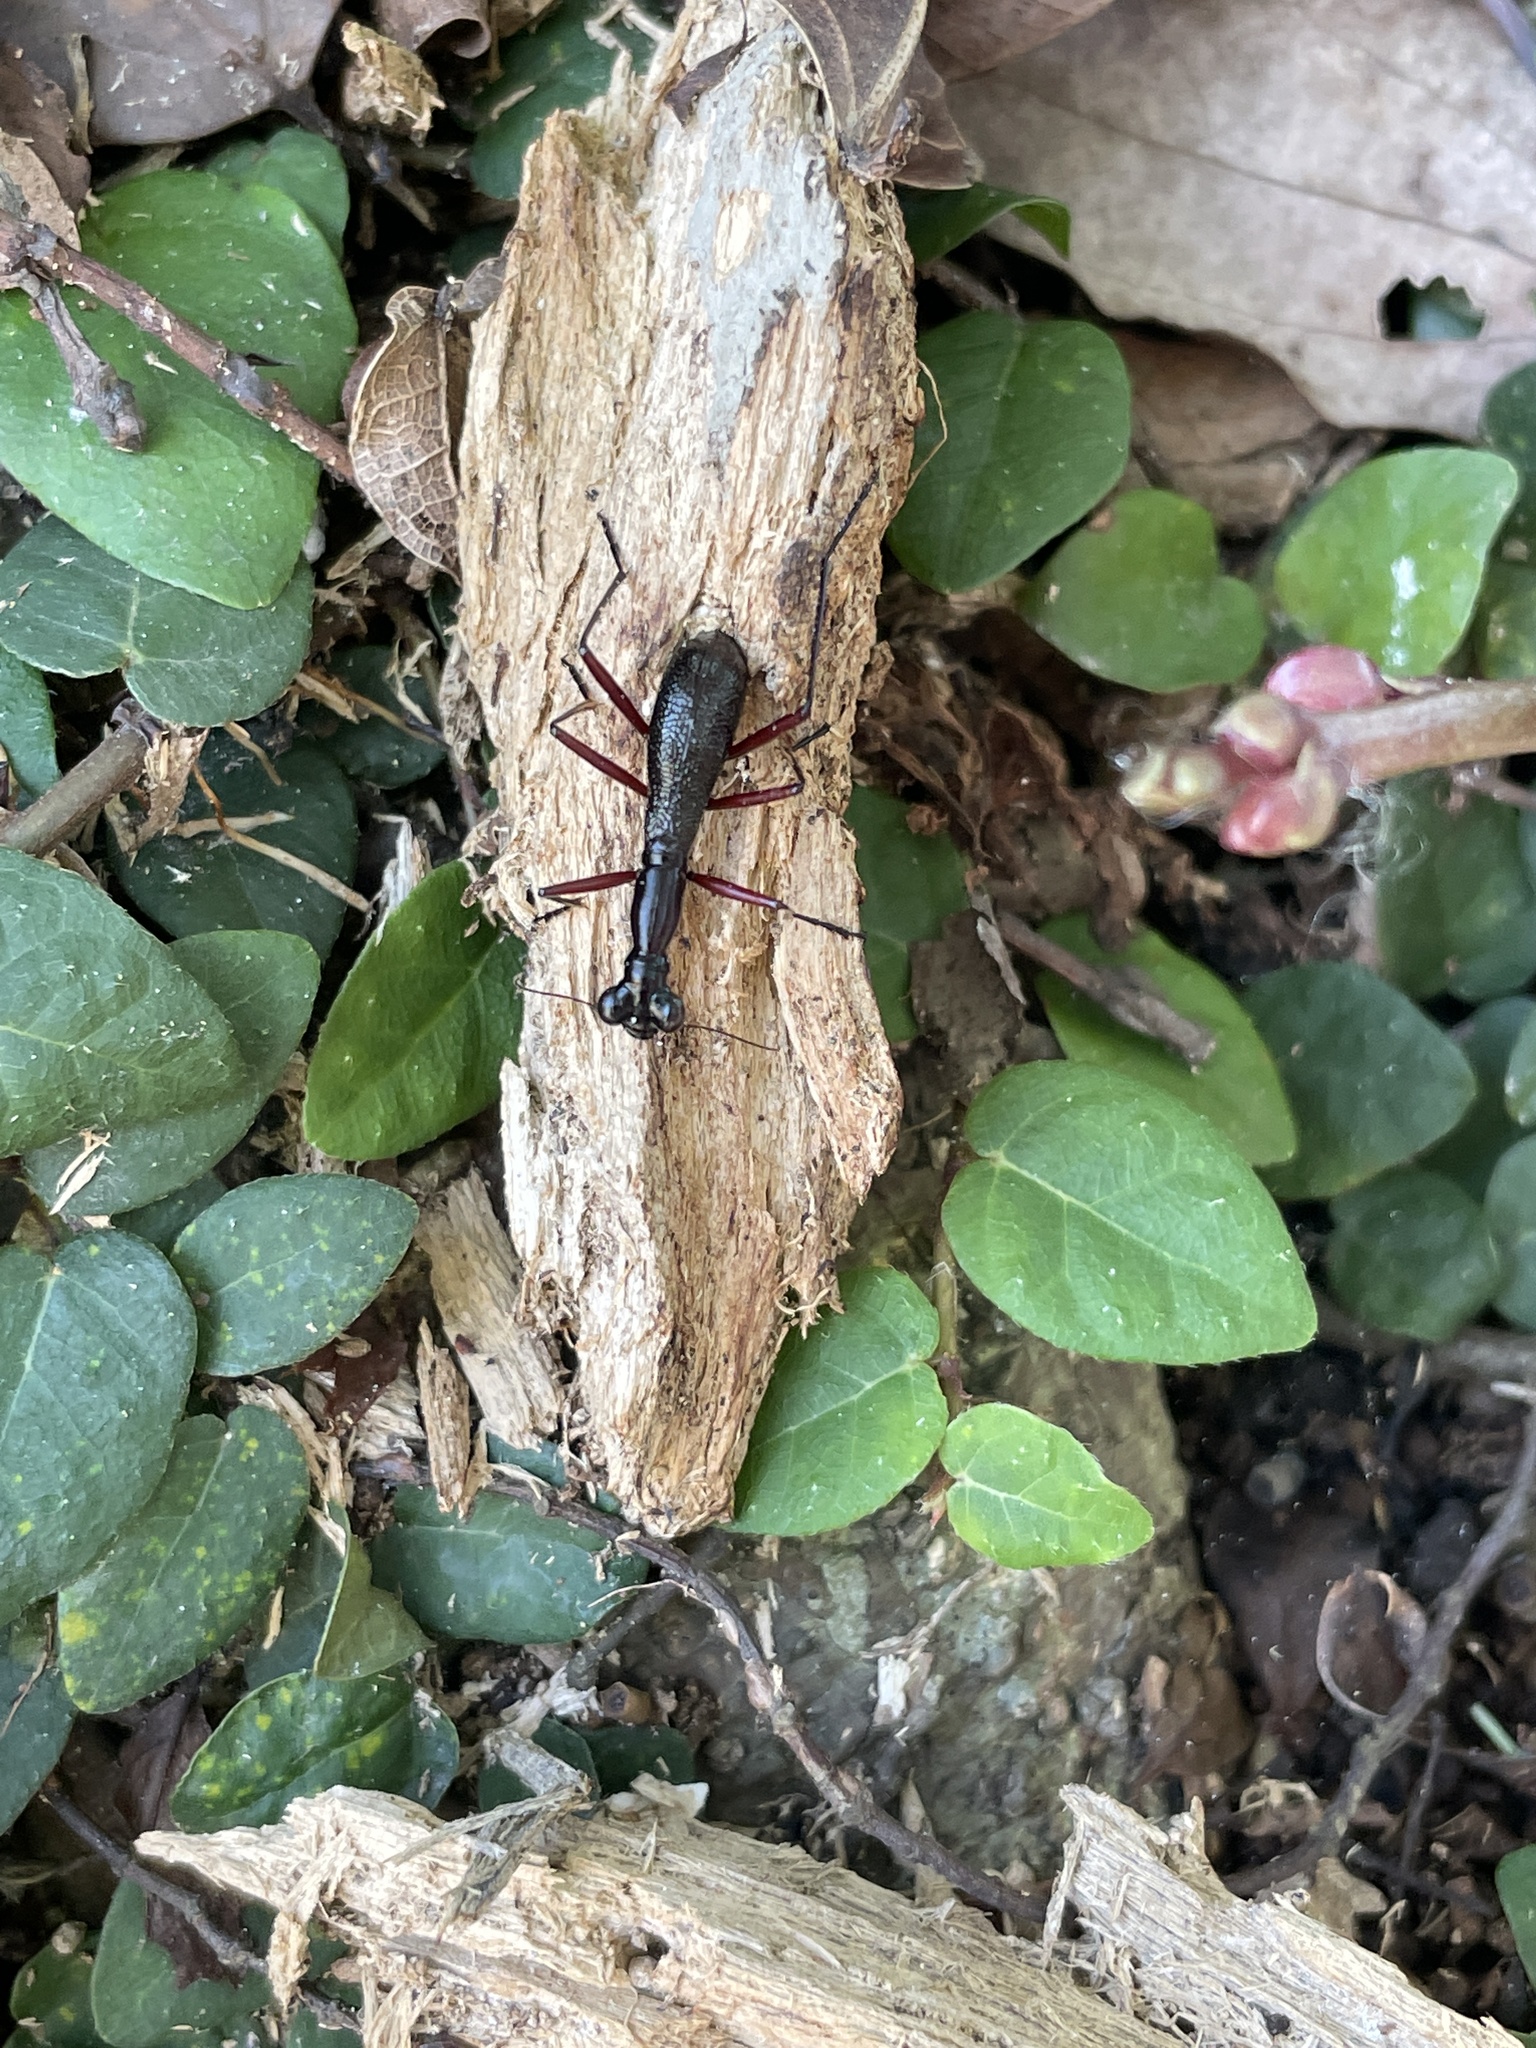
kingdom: Animalia
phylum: Arthropoda
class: Insecta
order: Coleoptera
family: Carabidae
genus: Tricondyla
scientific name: Tricondyla pulchripes
